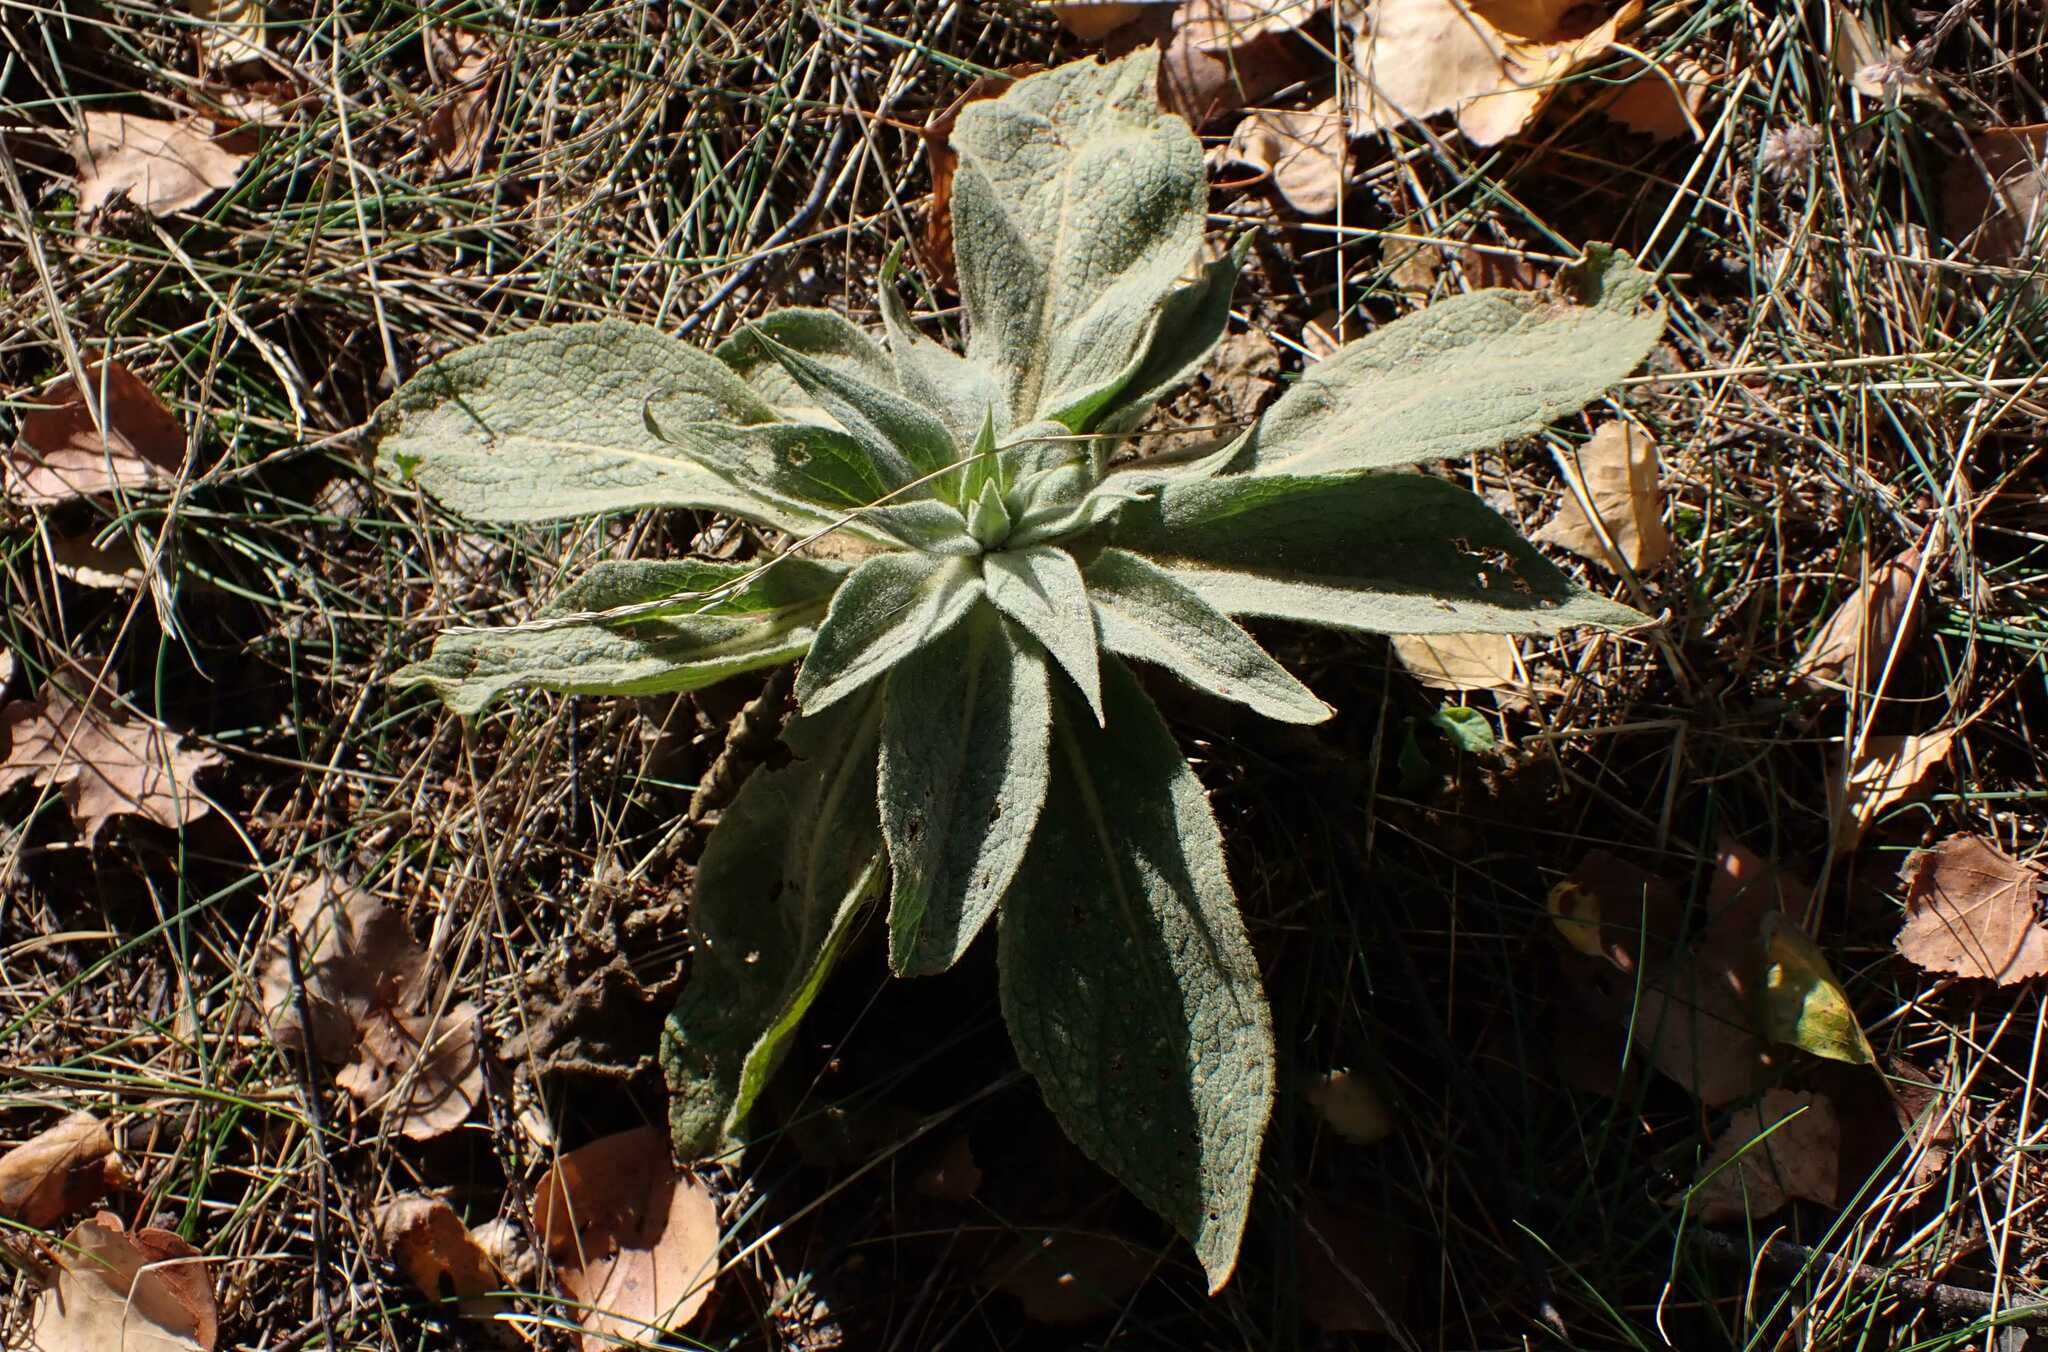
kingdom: Animalia
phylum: Arthropoda
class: Insecta
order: Hemiptera
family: Cicadellidae
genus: Micantulina
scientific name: Micantulina stigmatipennis
